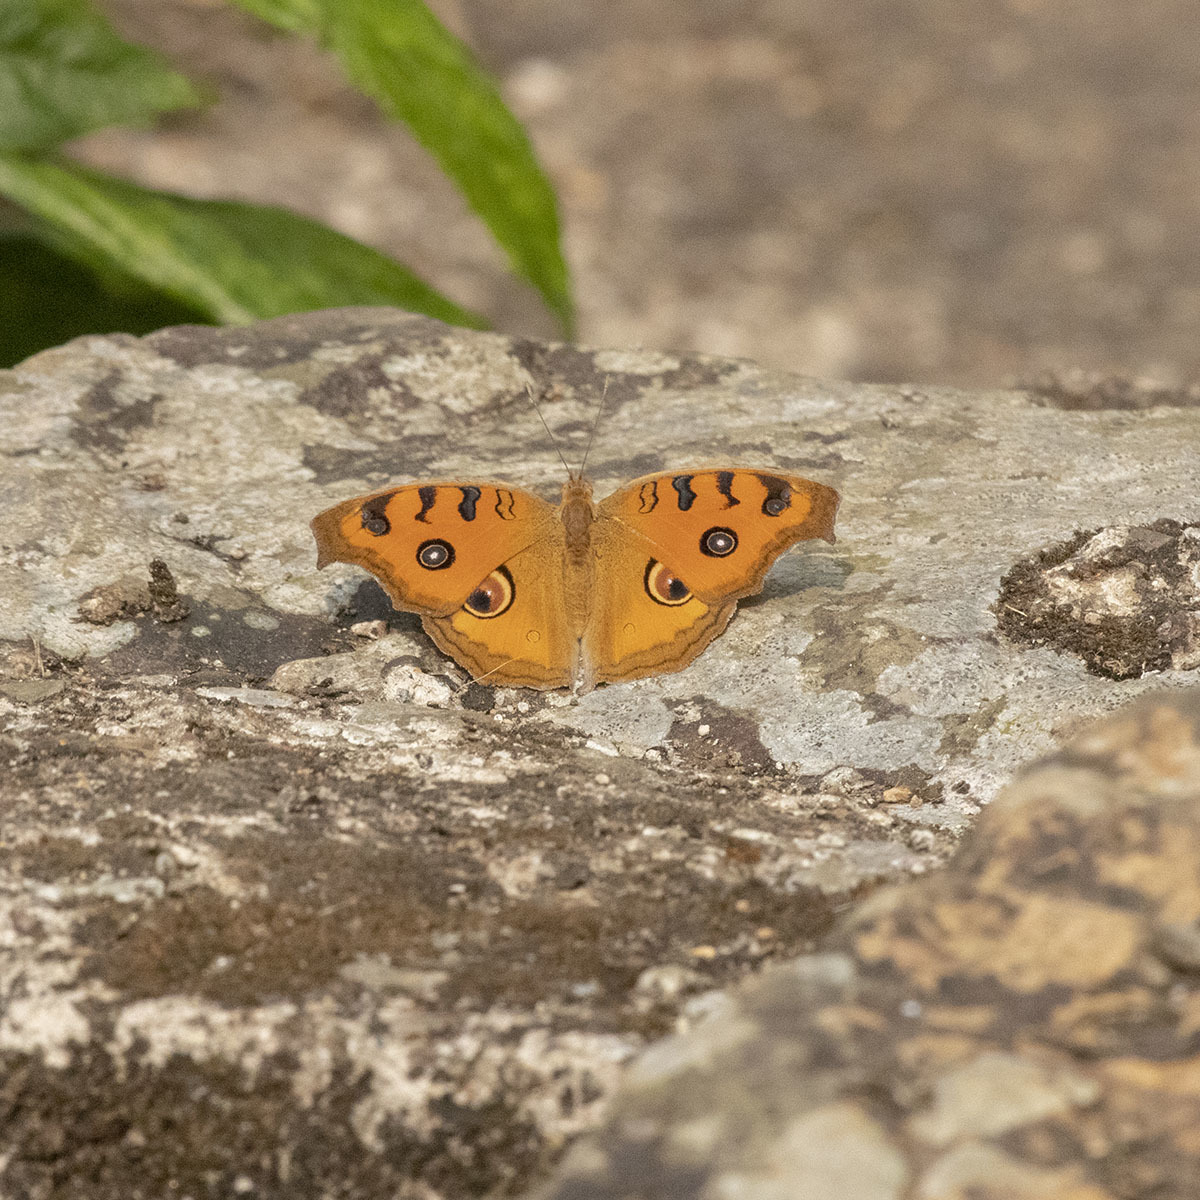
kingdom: Animalia
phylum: Arthropoda
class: Insecta
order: Lepidoptera
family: Nymphalidae
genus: Junonia
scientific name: Junonia almana
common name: Peacock pansy
